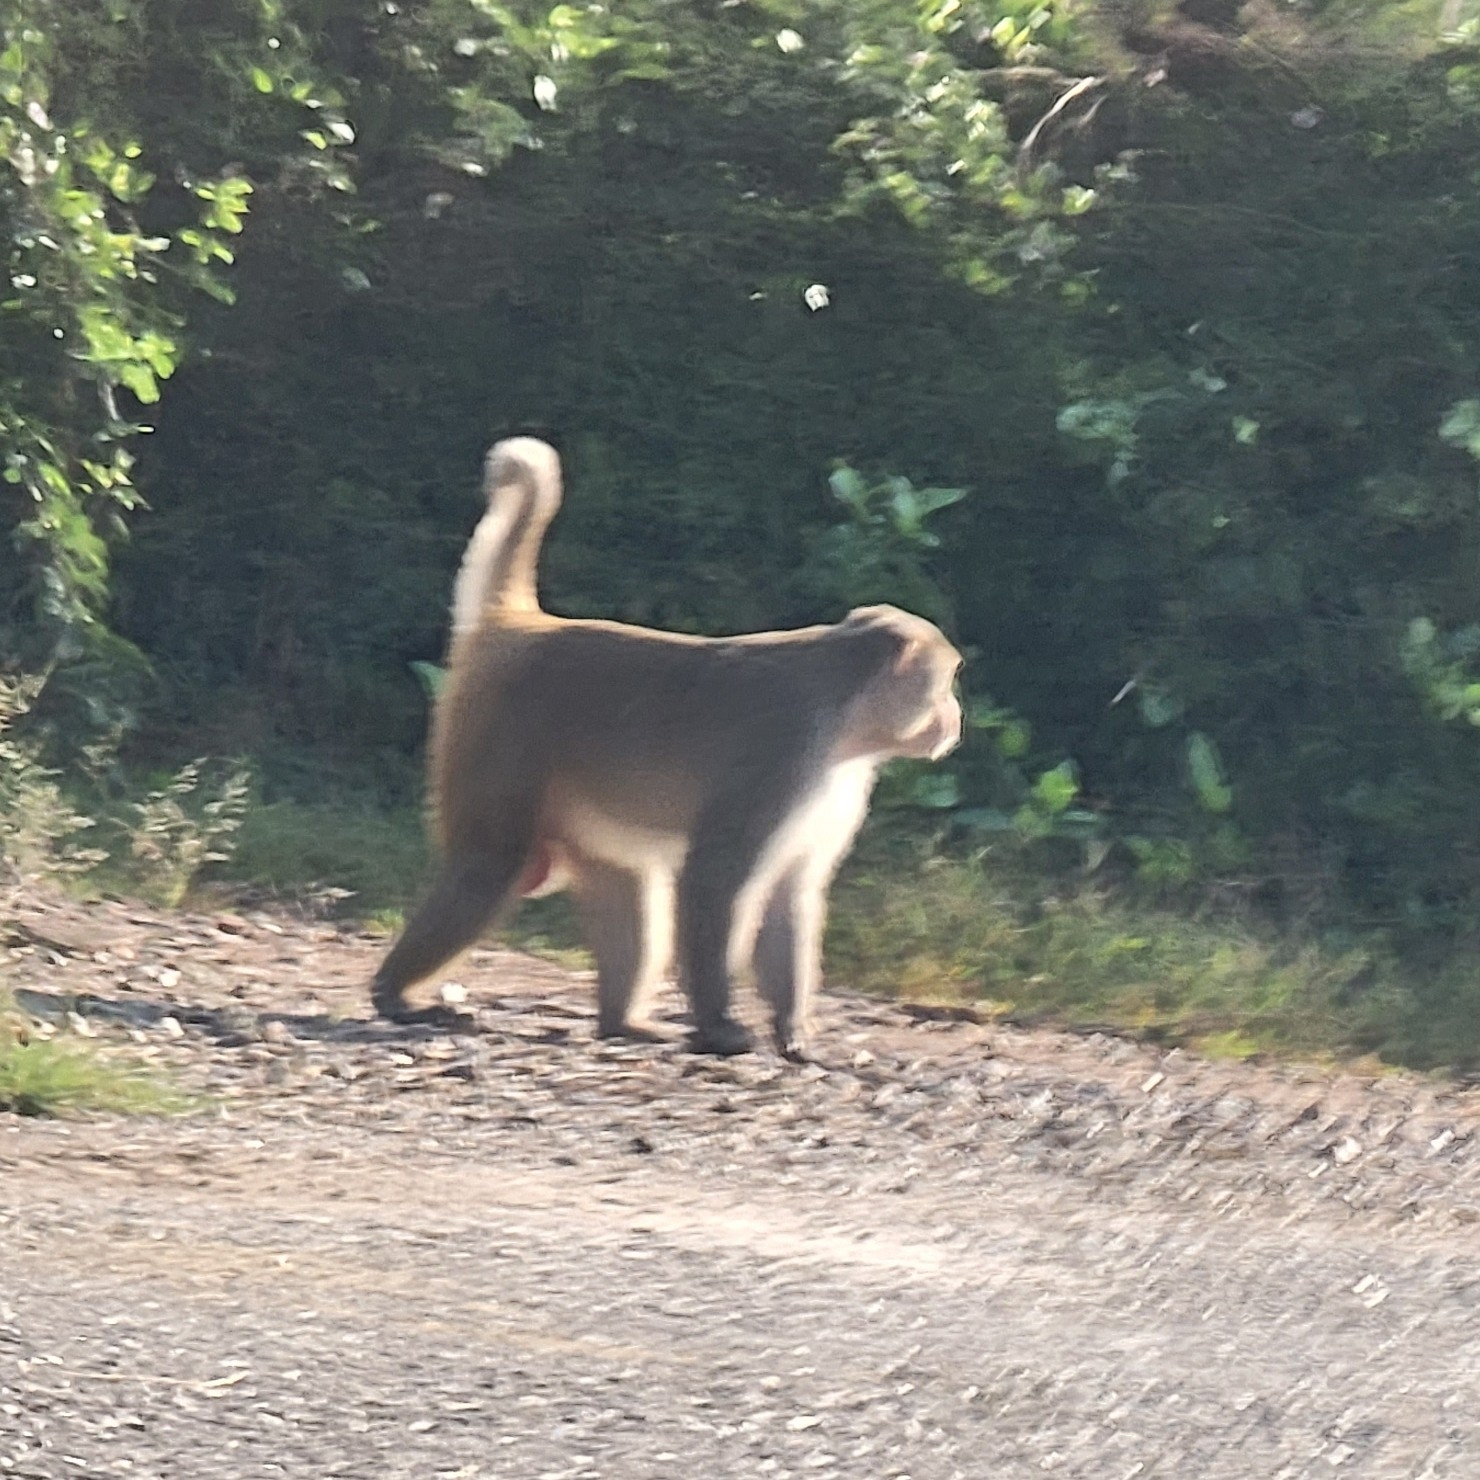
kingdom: Animalia
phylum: Chordata
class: Mammalia
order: Primates
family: Cercopithecidae
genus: Macaca
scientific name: Macaca mulatta
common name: Rhesus monkey
